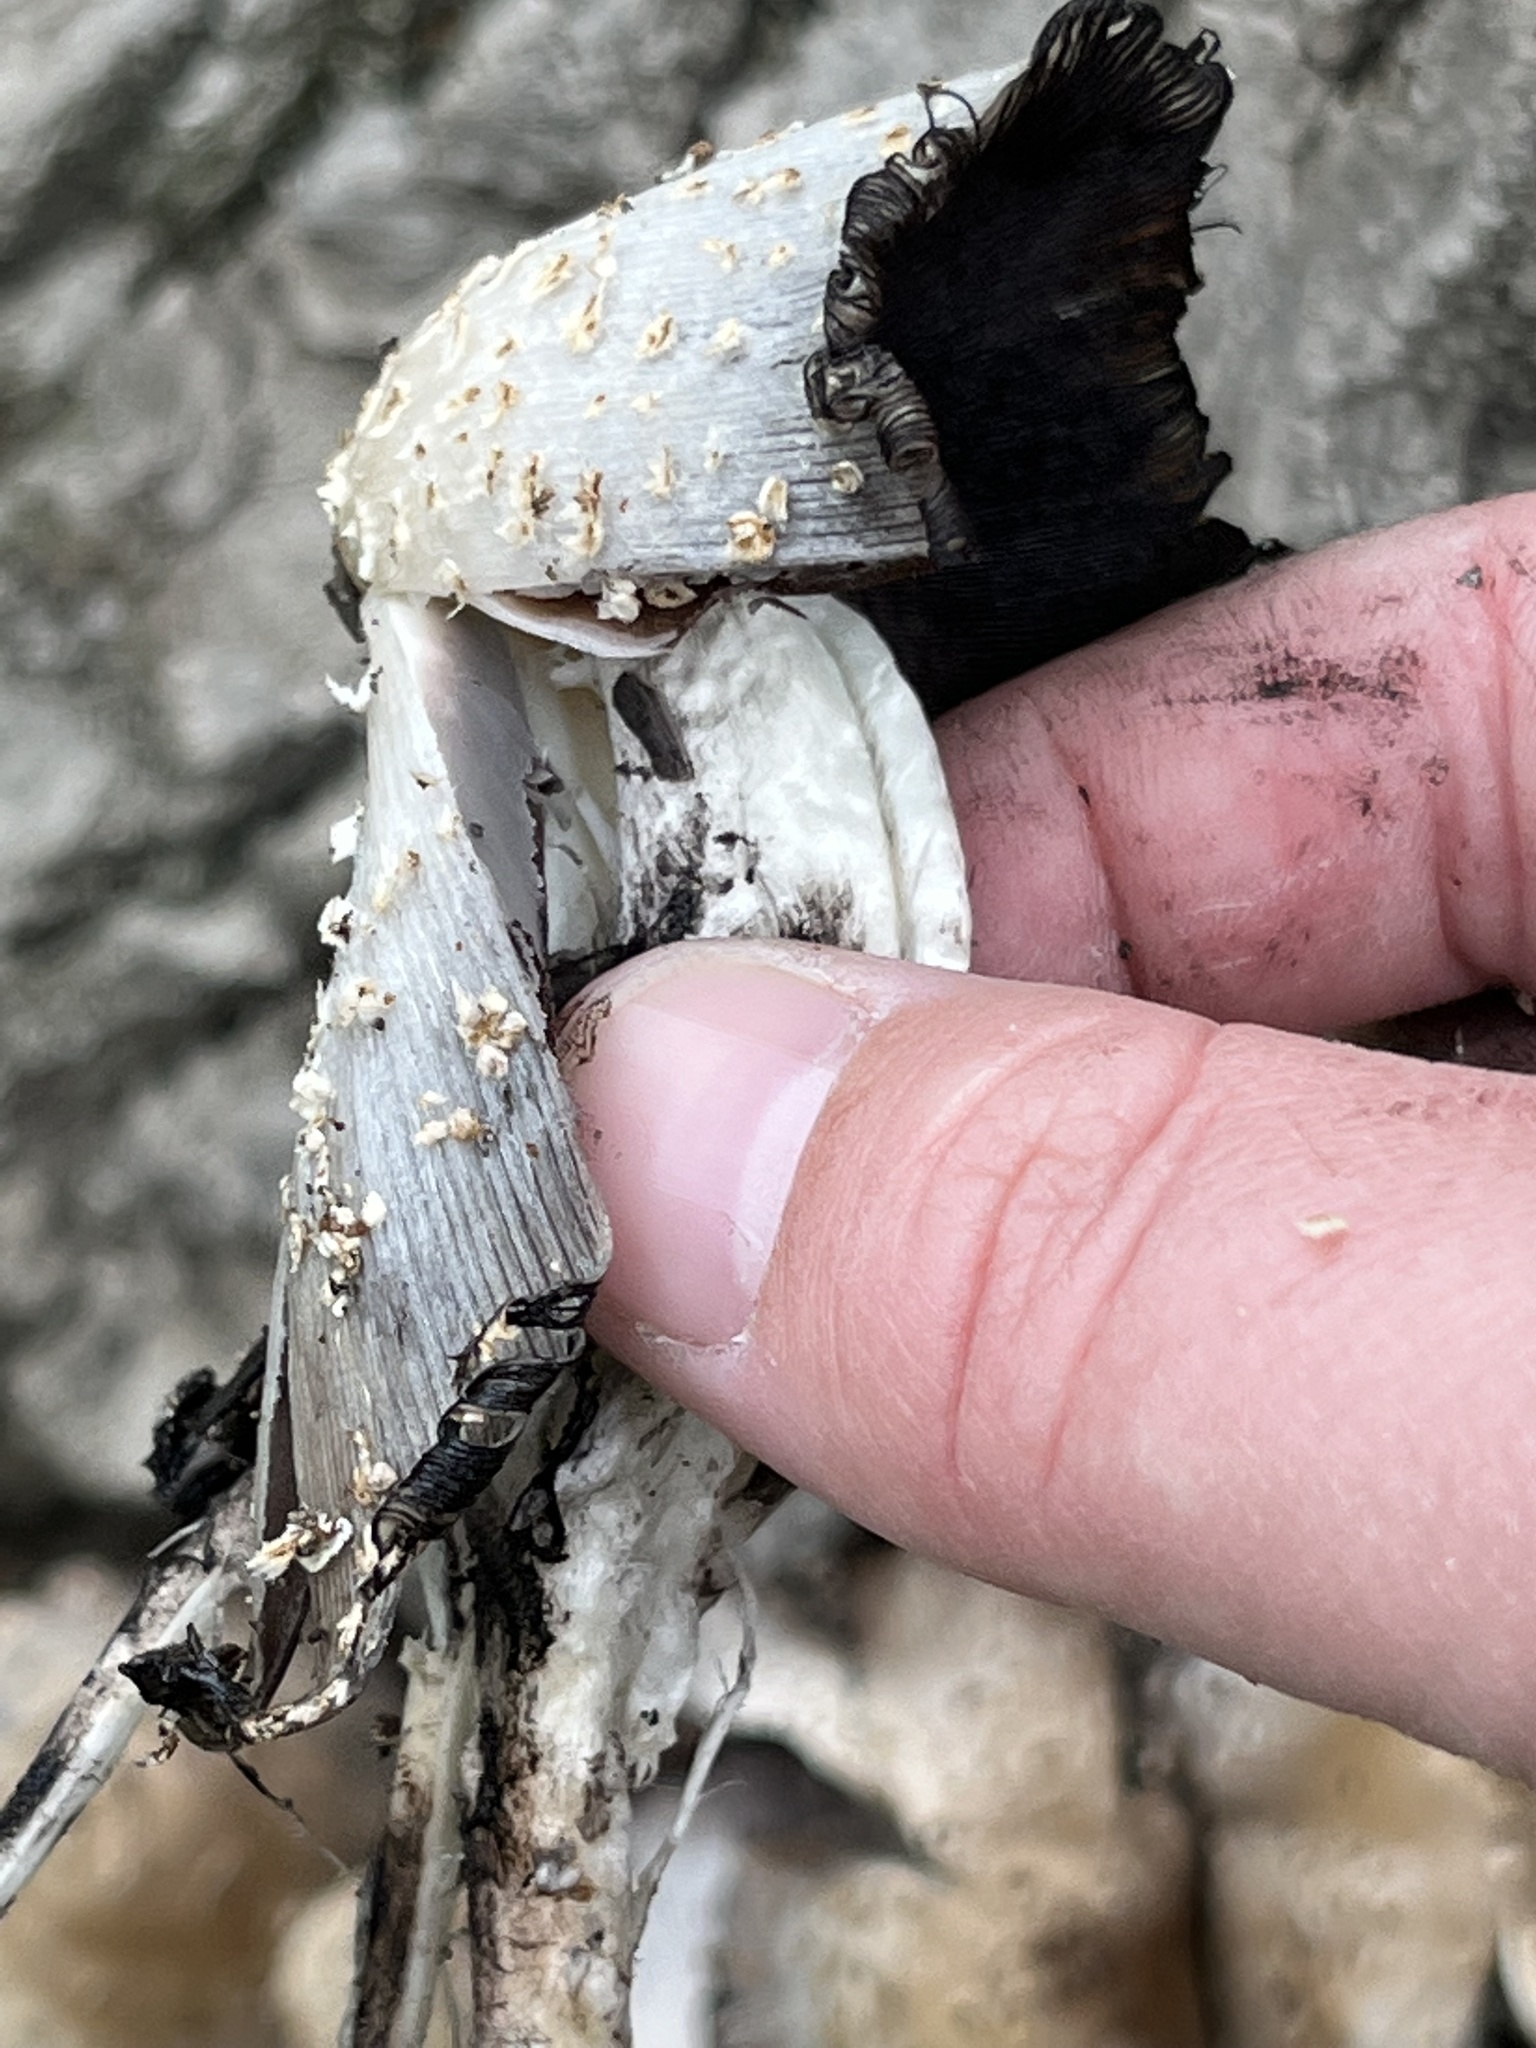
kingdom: Fungi
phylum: Basidiomycota
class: Agaricomycetes
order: Agaricales
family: Psathyrellaceae
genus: Coprinopsis
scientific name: Coprinopsis variegata
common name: Scaly ink cap
